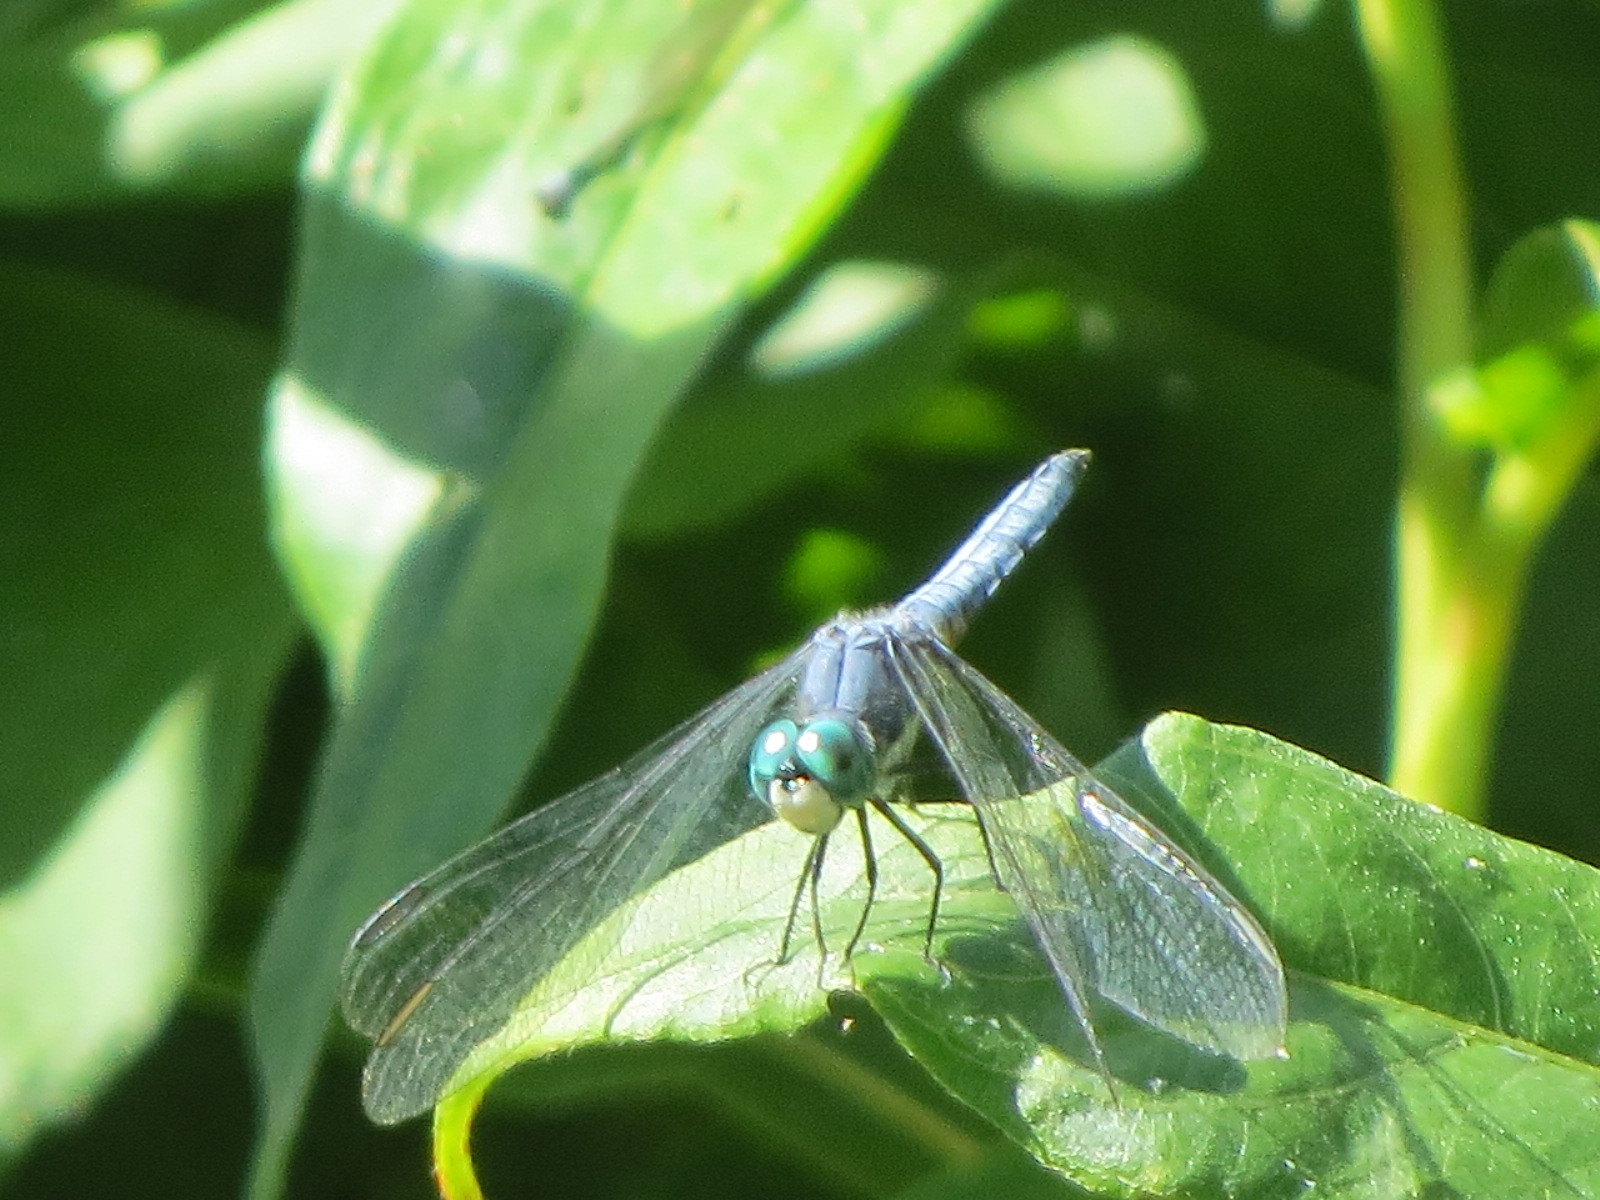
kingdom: Animalia
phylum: Arthropoda
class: Insecta
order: Odonata
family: Libellulidae
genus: Pachydiplax
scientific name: Pachydiplax longipennis
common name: Blue dasher
